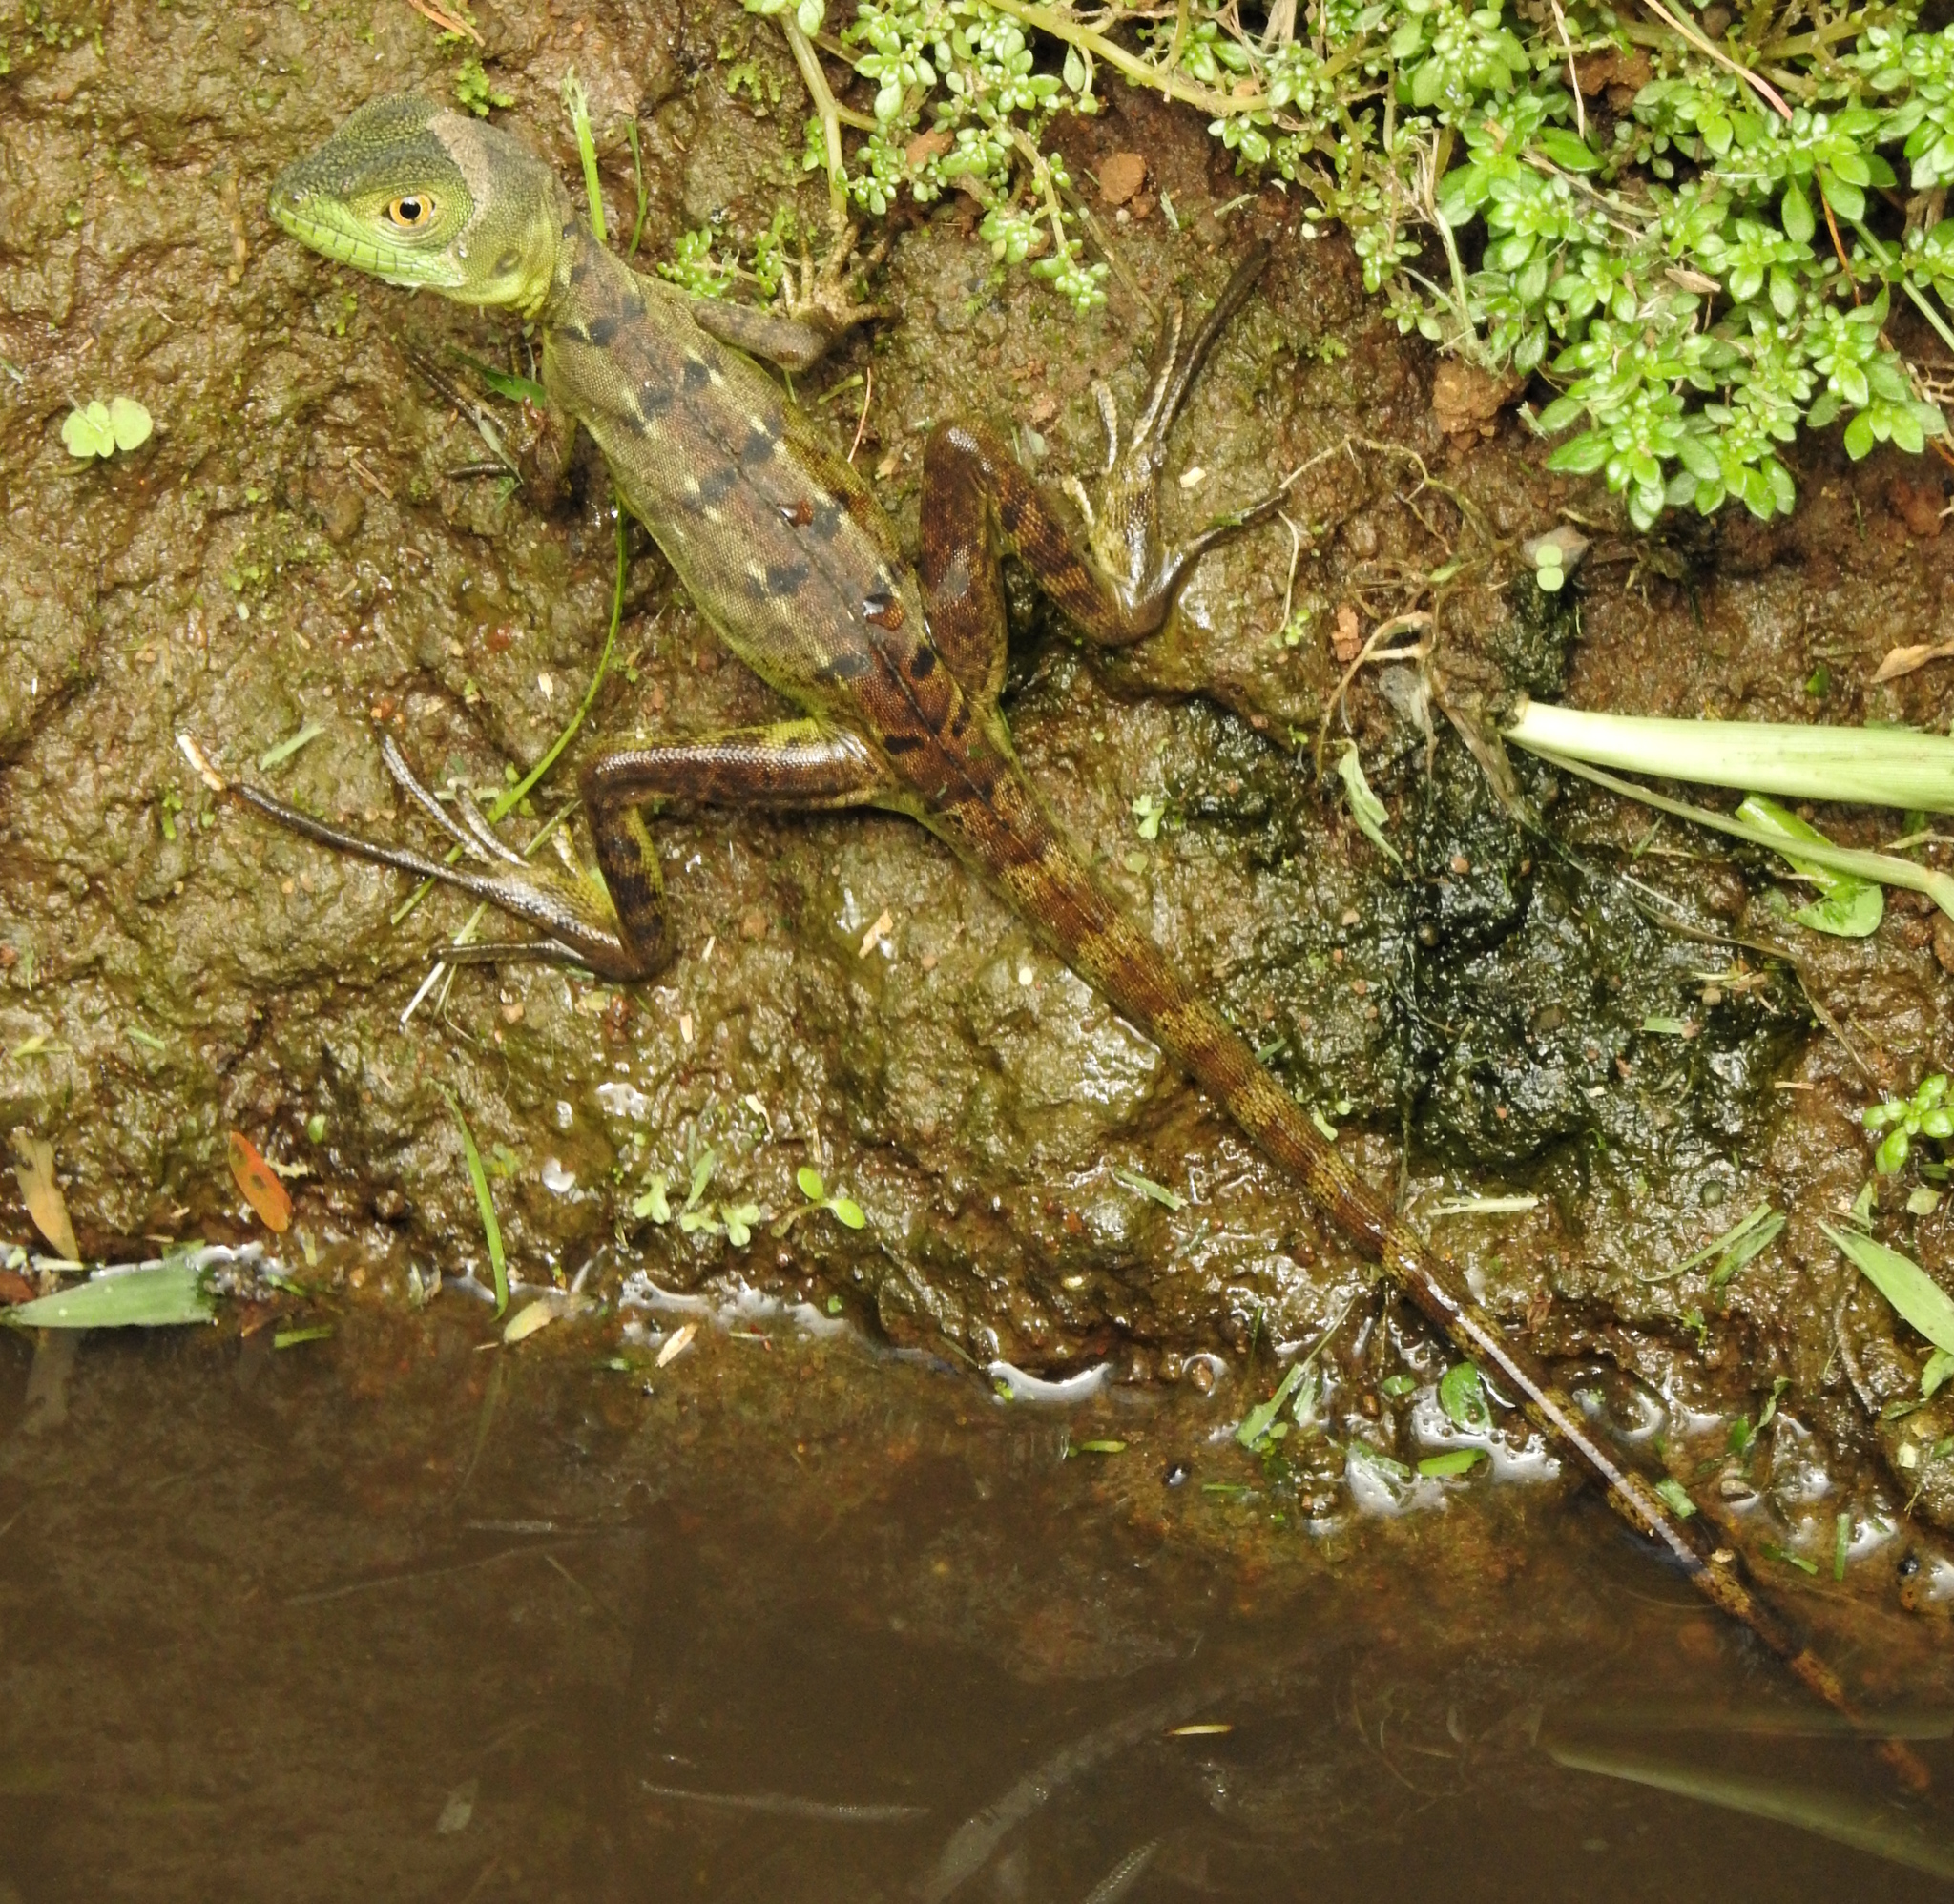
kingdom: Animalia
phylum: Chordata
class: Squamata
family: Corytophanidae
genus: Basiliscus
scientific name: Basiliscus plumifrons
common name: Green basilisk
